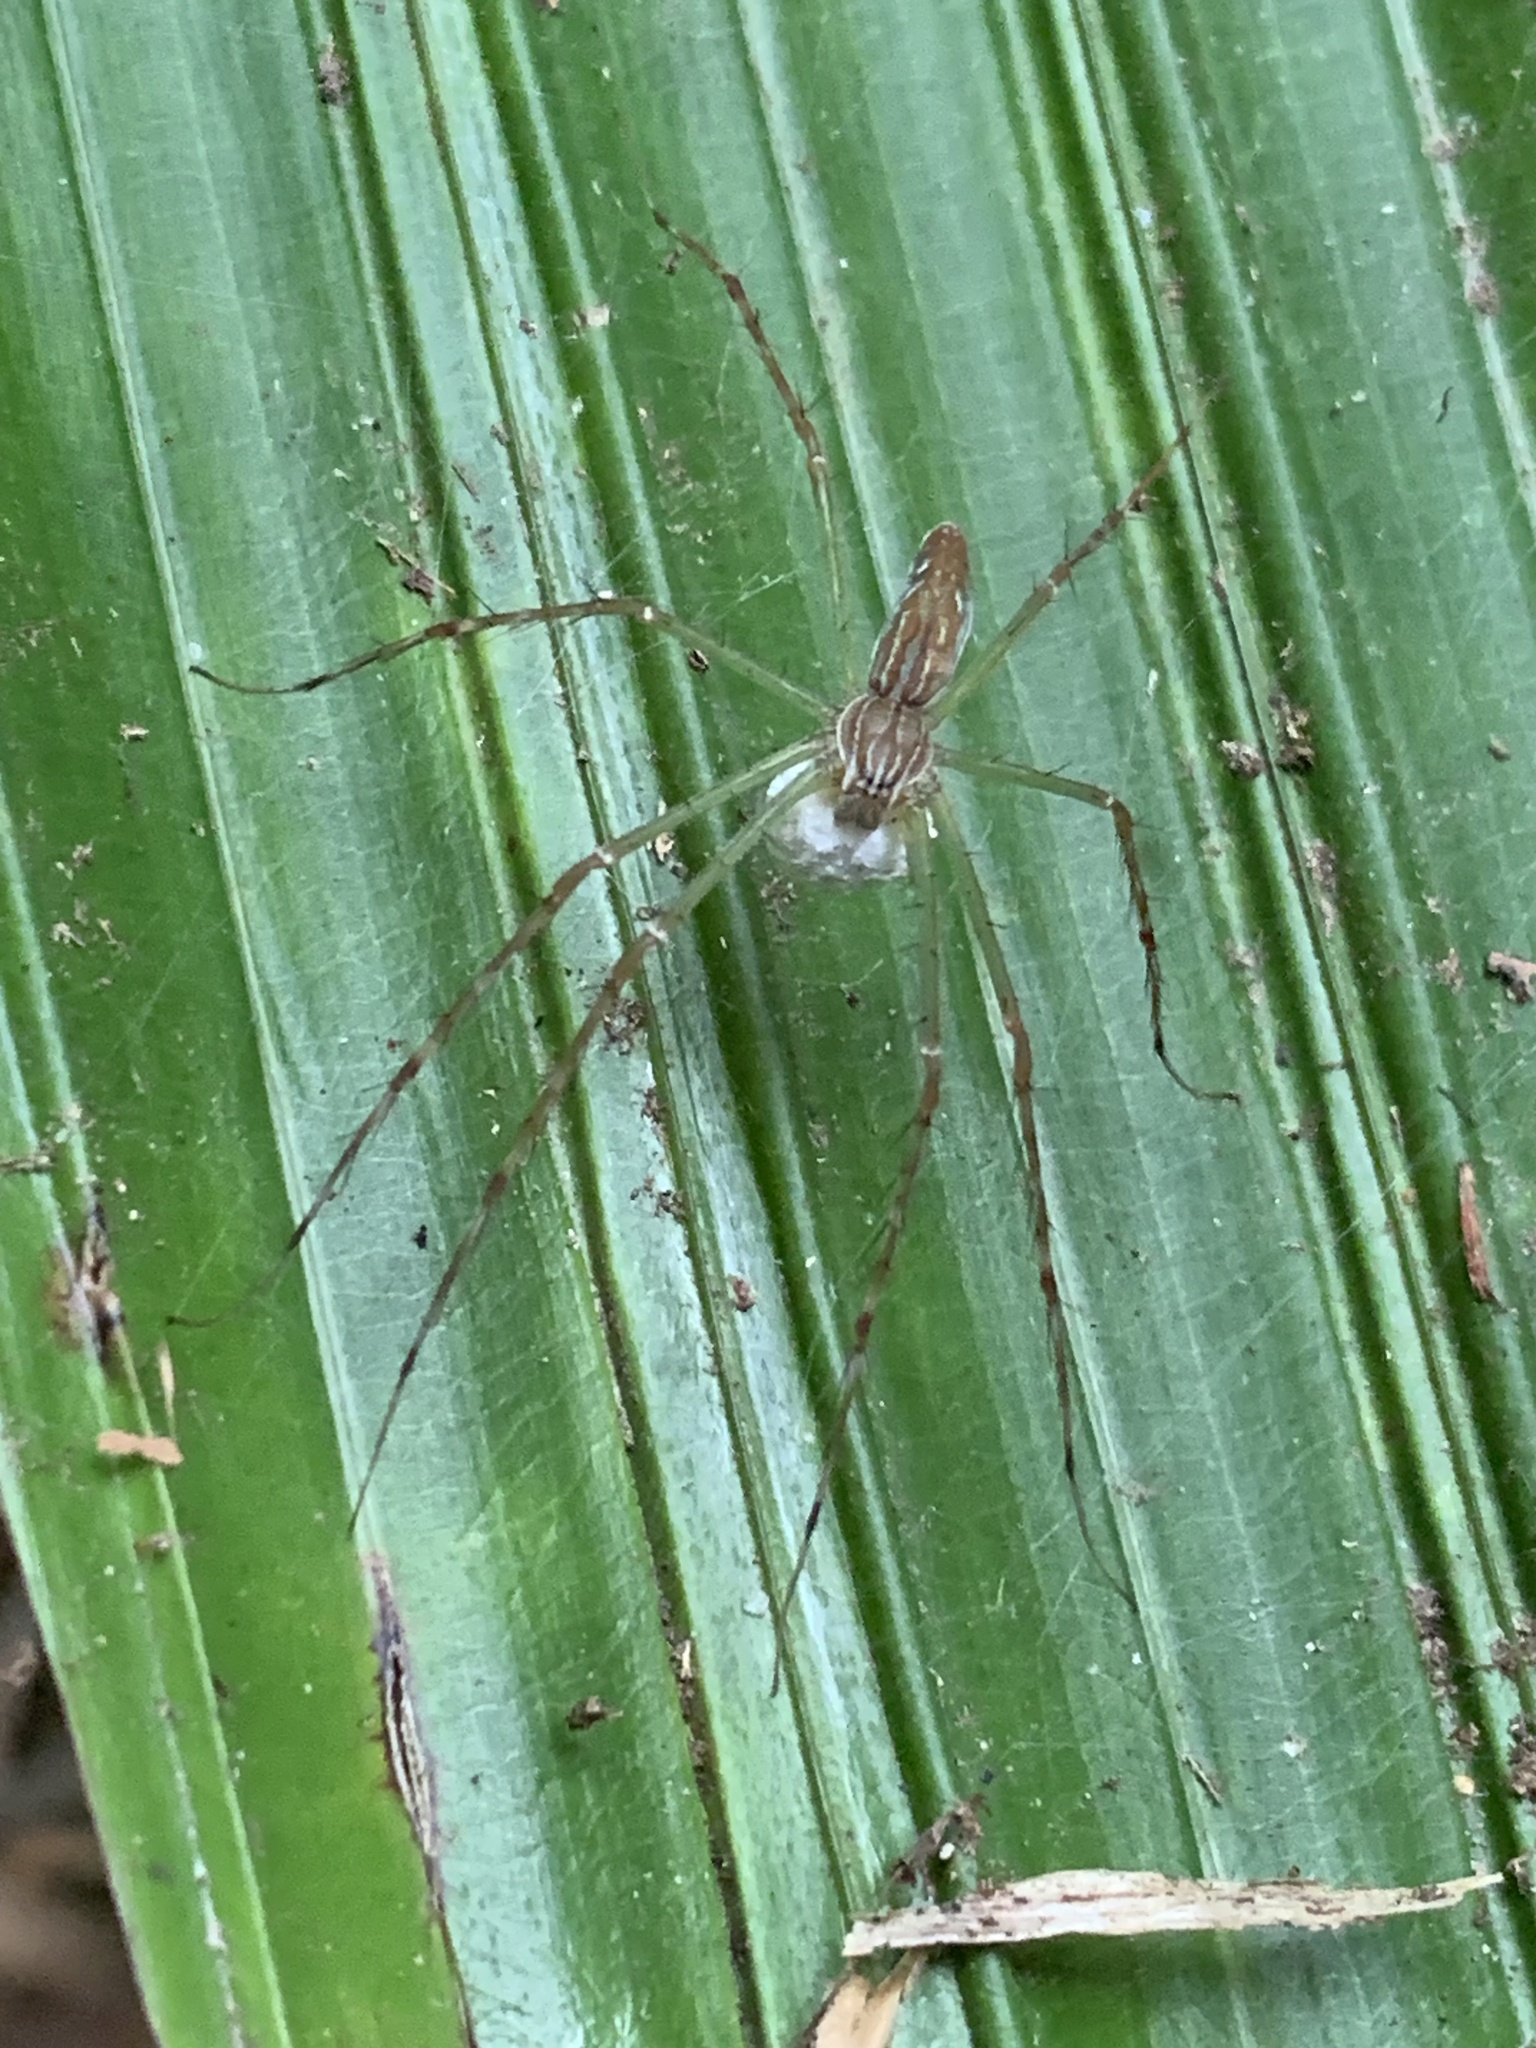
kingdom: Animalia
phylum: Arthropoda
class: Arachnida
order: Araneae
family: Pisauridae
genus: Hygropoda
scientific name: Hygropoda lineata
